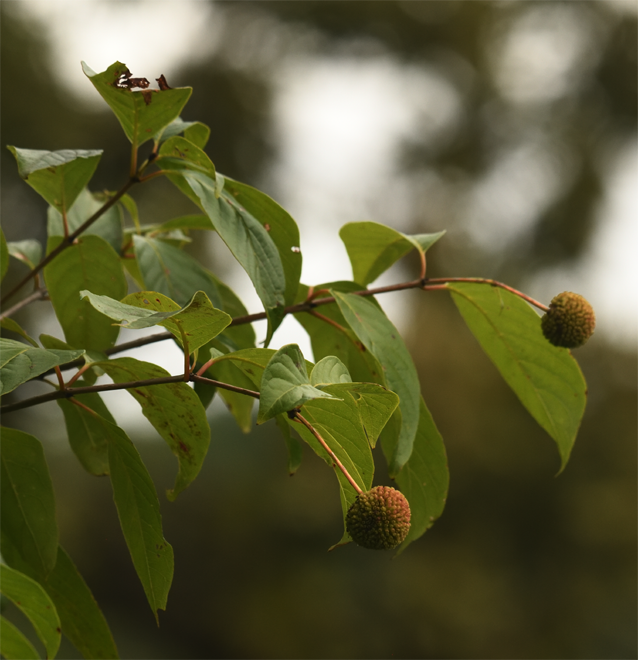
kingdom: Plantae
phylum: Tracheophyta
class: Magnoliopsida
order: Gentianales
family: Rubiaceae
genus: Cephalanthus
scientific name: Cephalanthus occidentalis
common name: Button-willow
